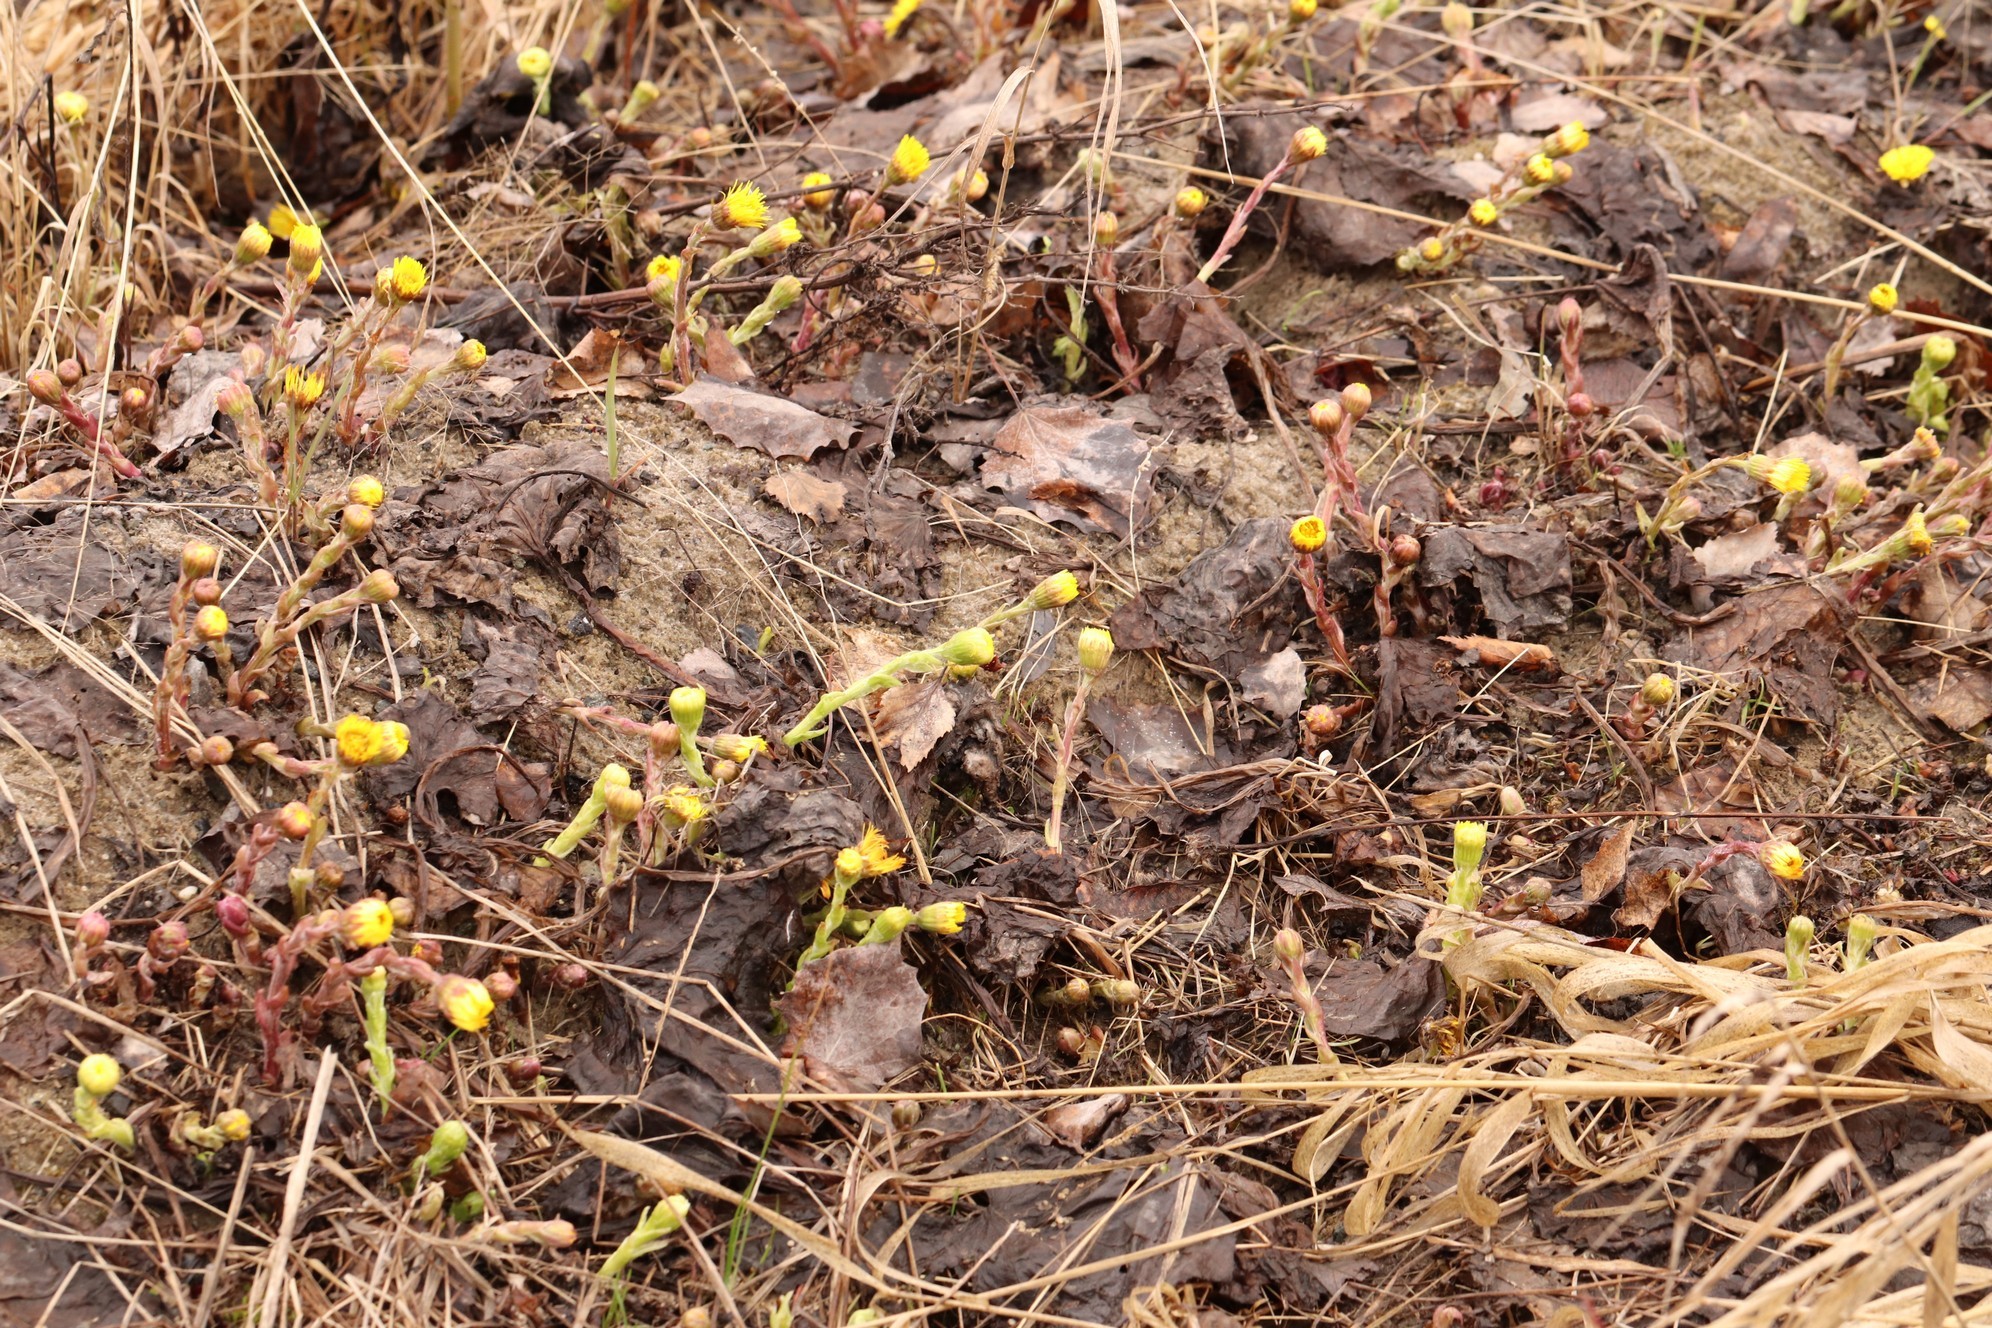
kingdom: Plantae
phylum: Tracheophyta
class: Magnoliopsida
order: Asterales
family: Asteraceae
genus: Tussilago
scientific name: Tussilago farfara
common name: Coltsfoot
